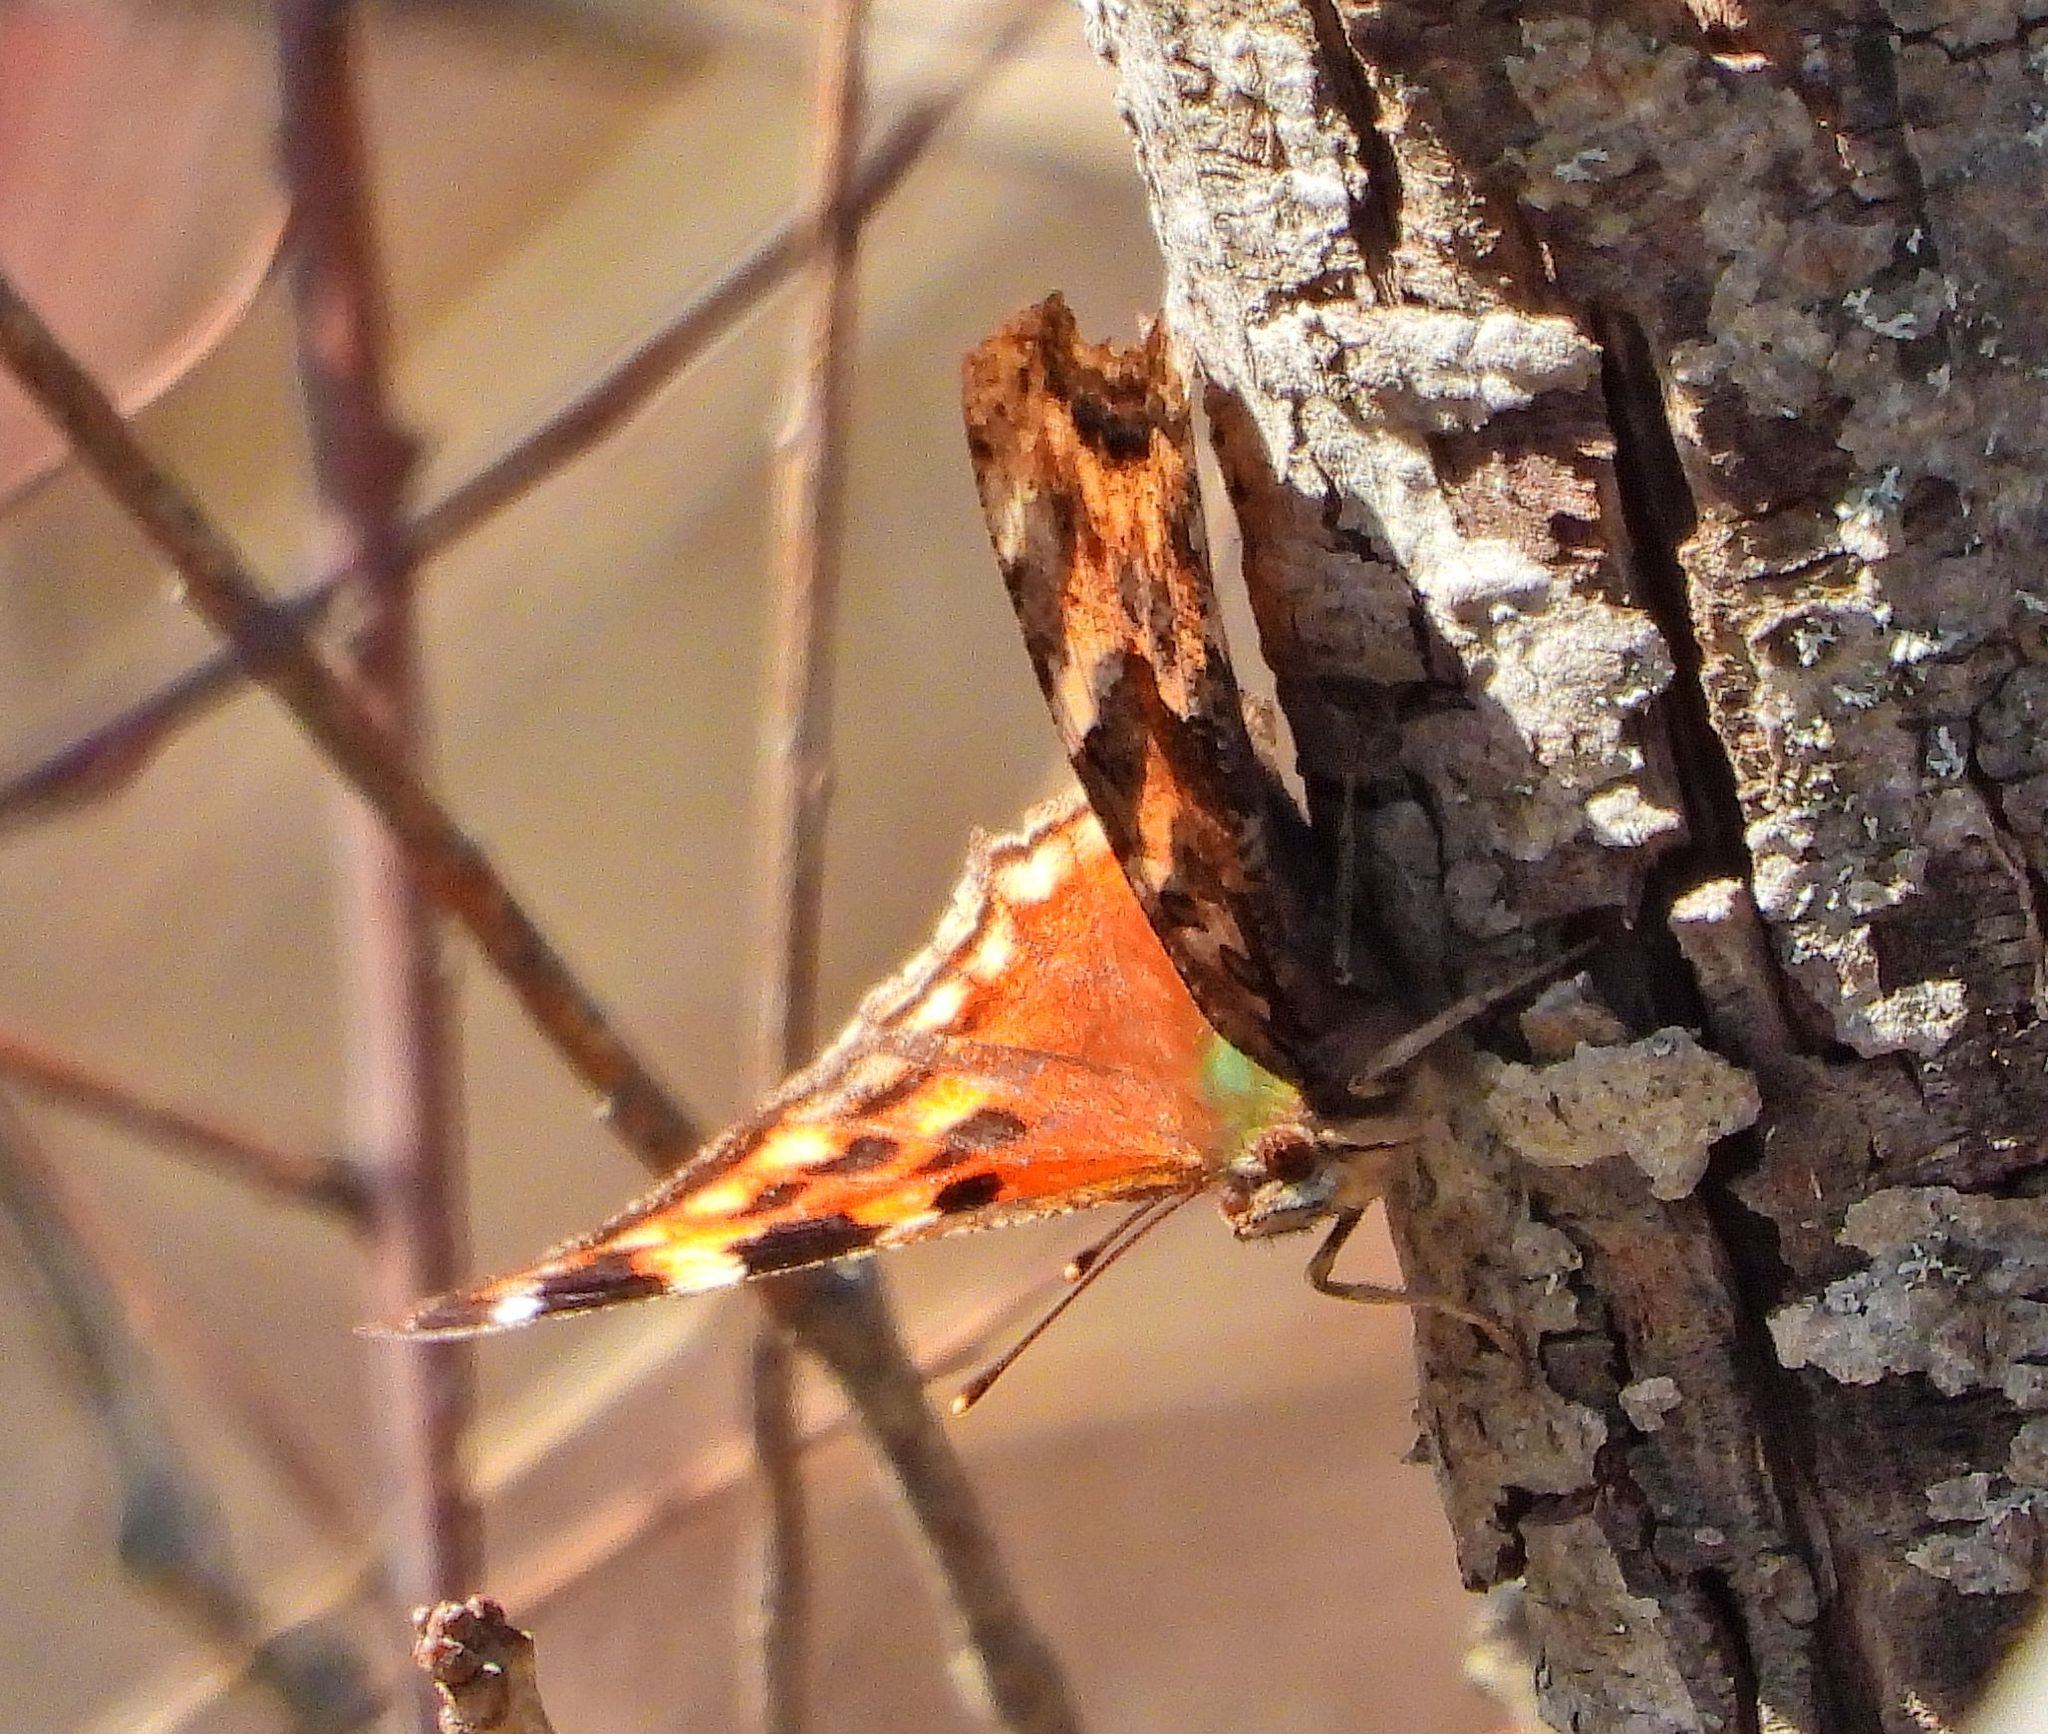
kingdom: Animalia
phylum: Arthropoda
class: Insecta
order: Lepidoptera
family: Nymphalidae
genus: Polygonia
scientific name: Polygonia vaualbum
